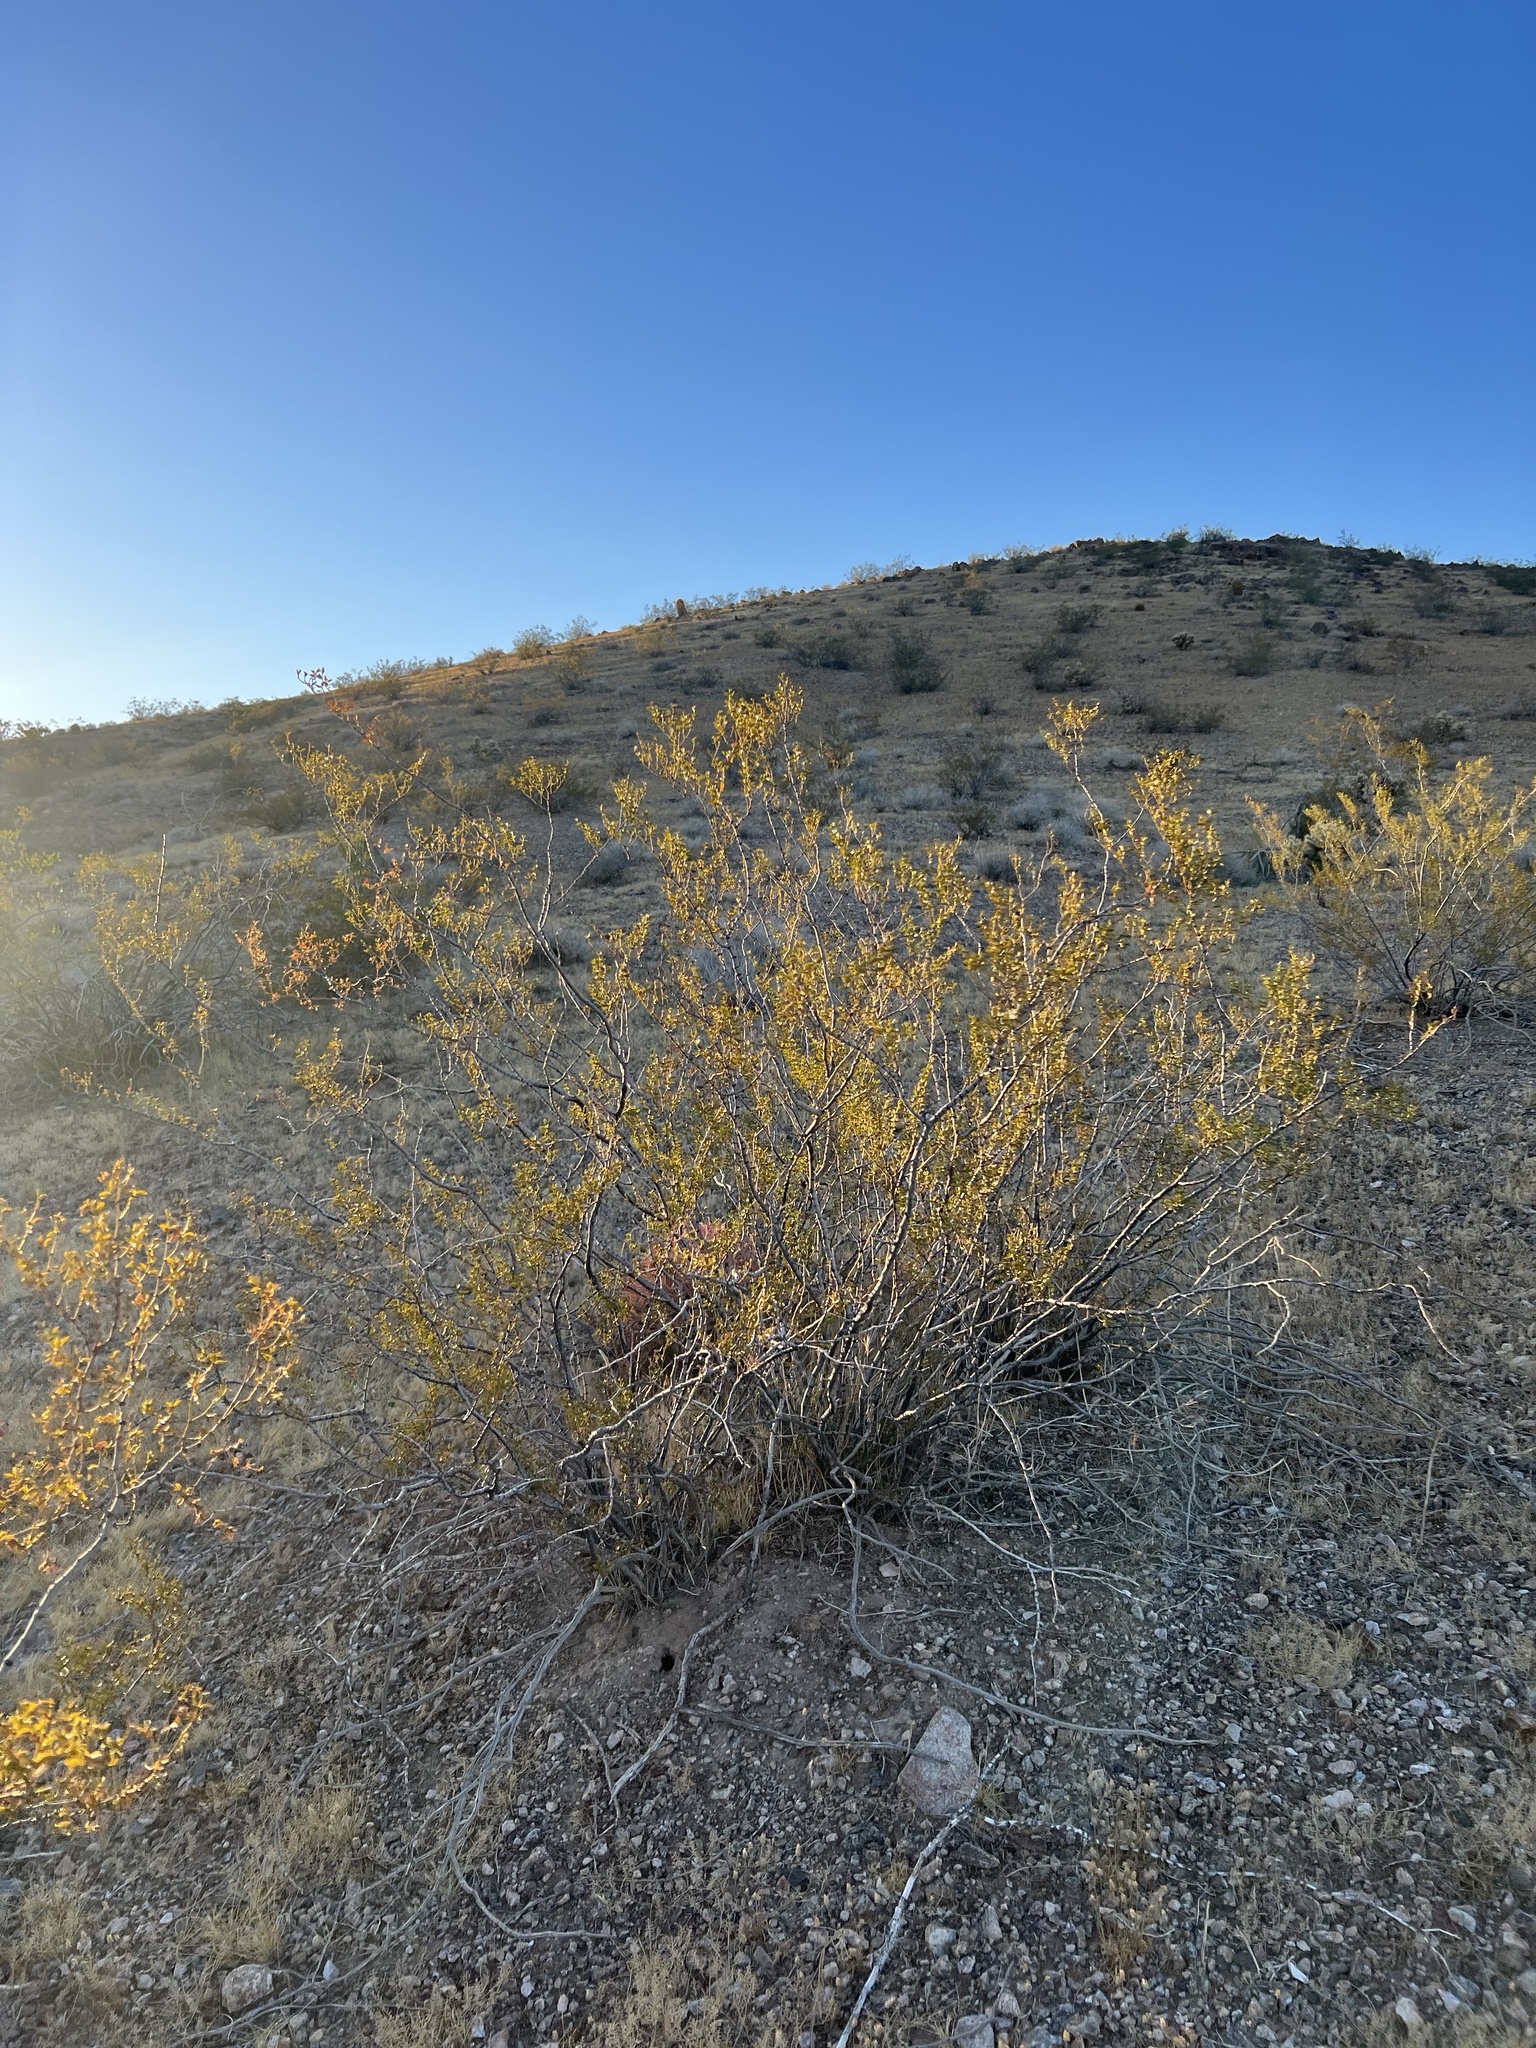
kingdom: Plantae
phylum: Tracheophyta
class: Magnoliopsida
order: Zygophyllales
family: Zygophyllaceae
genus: Larrea
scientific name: Larrea tridentata
